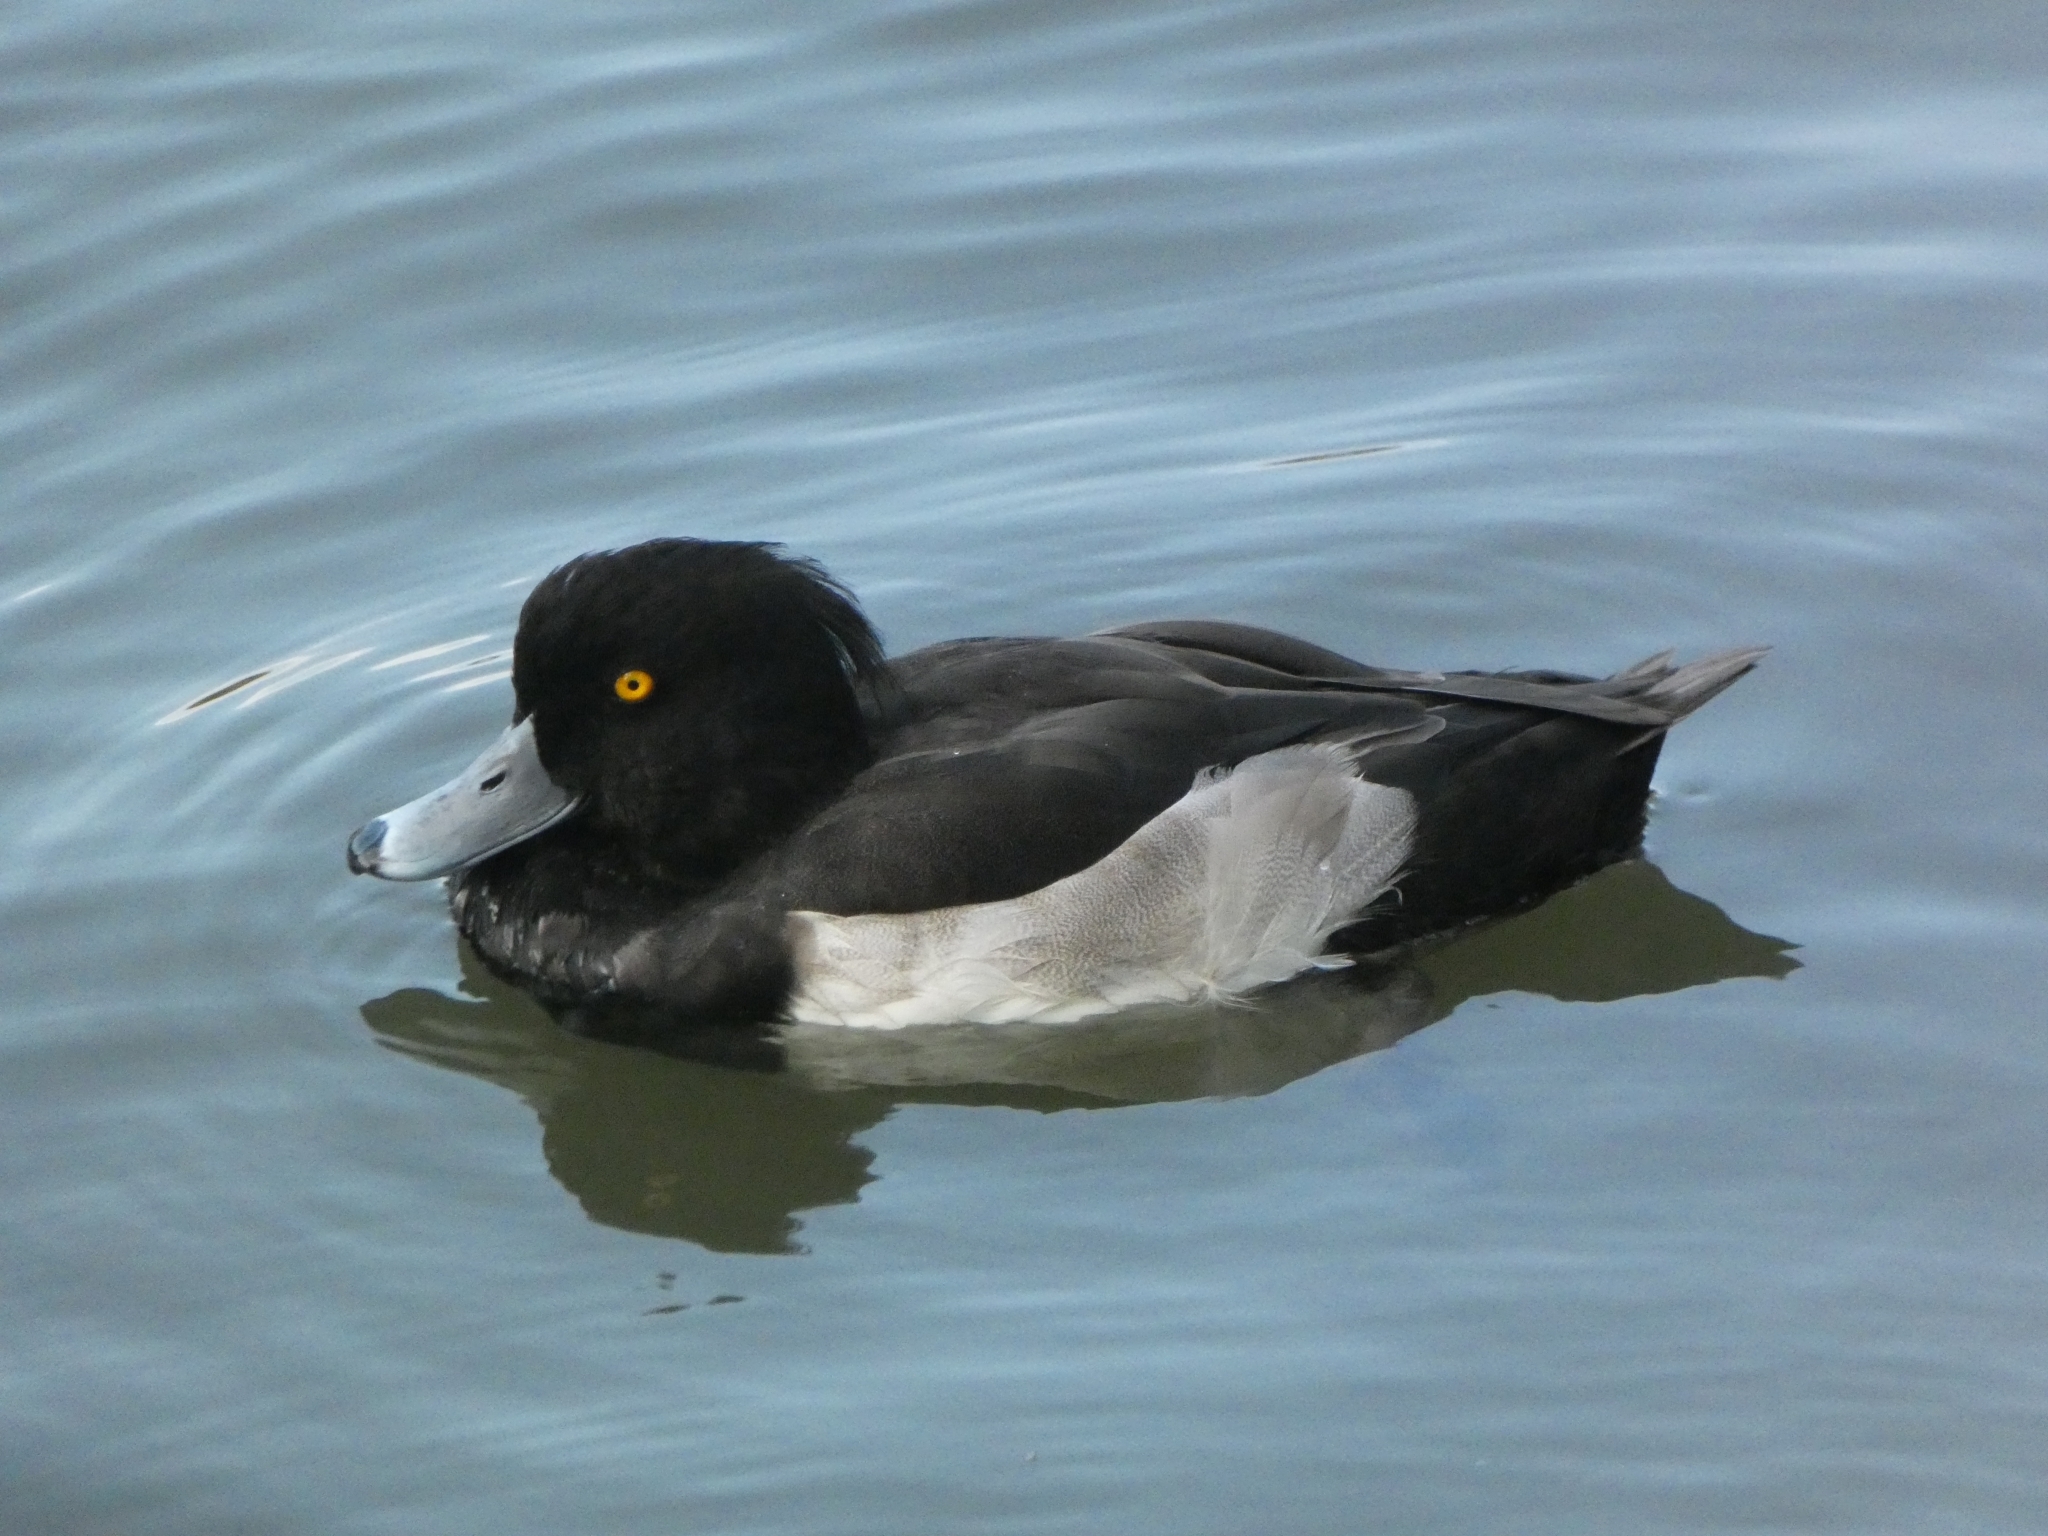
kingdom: Animalia
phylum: Chordata
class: Aves
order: Anseriformes
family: Anatidae
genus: Aythya
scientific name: Aythya fuligula
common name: Tufted duck
